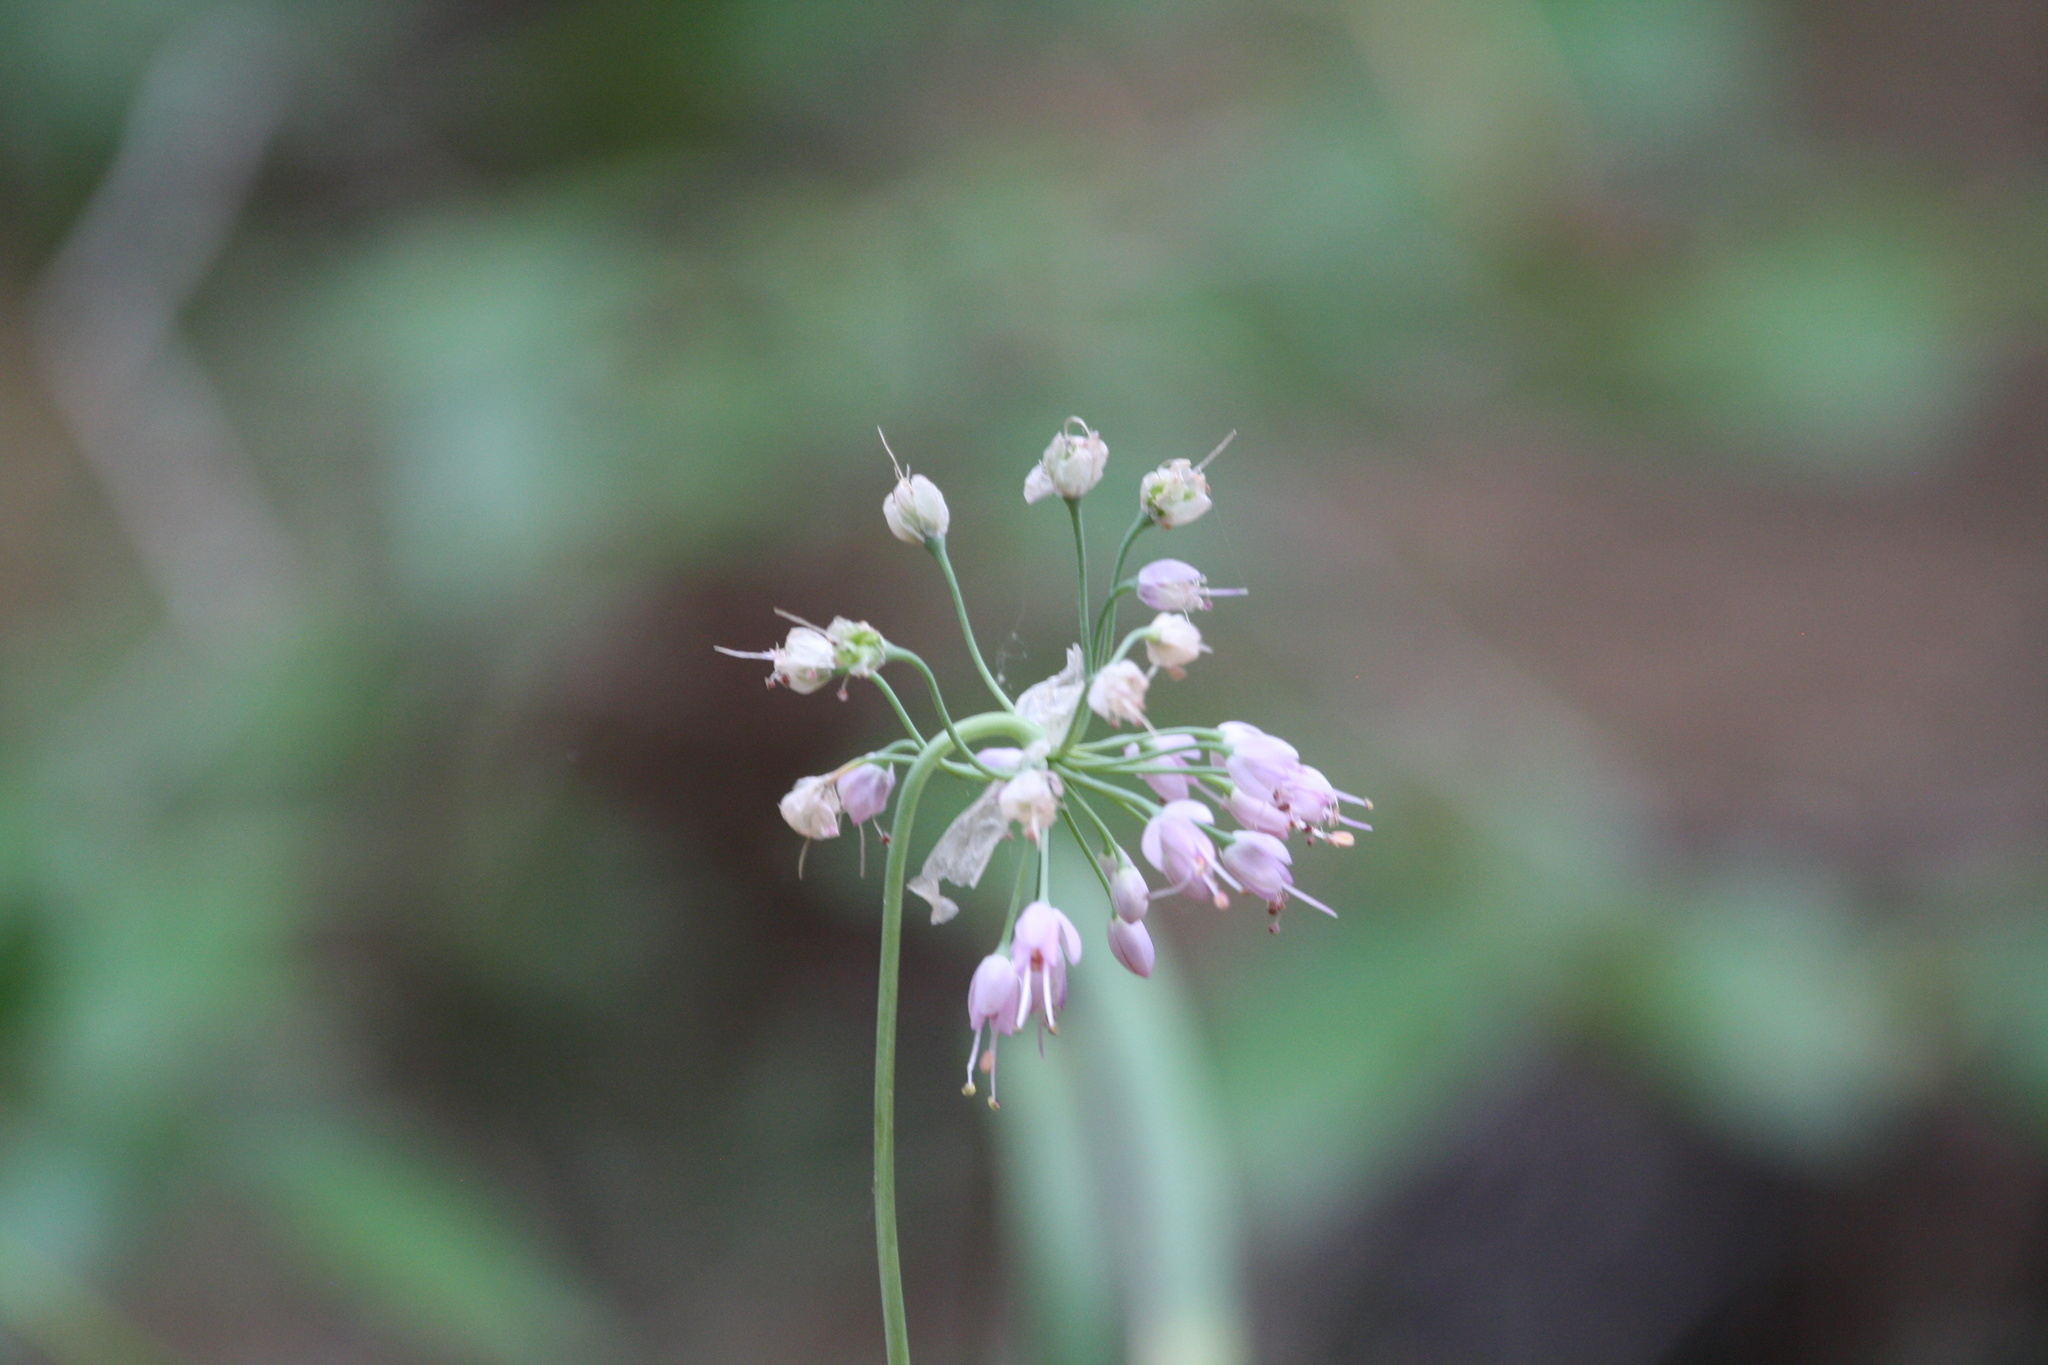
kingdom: Plantae
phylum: Tracheophyta
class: Liliopsida
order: Asparagales
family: Amaryllidaceae
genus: Allium
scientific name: Allium cernuum
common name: Nodding onion
